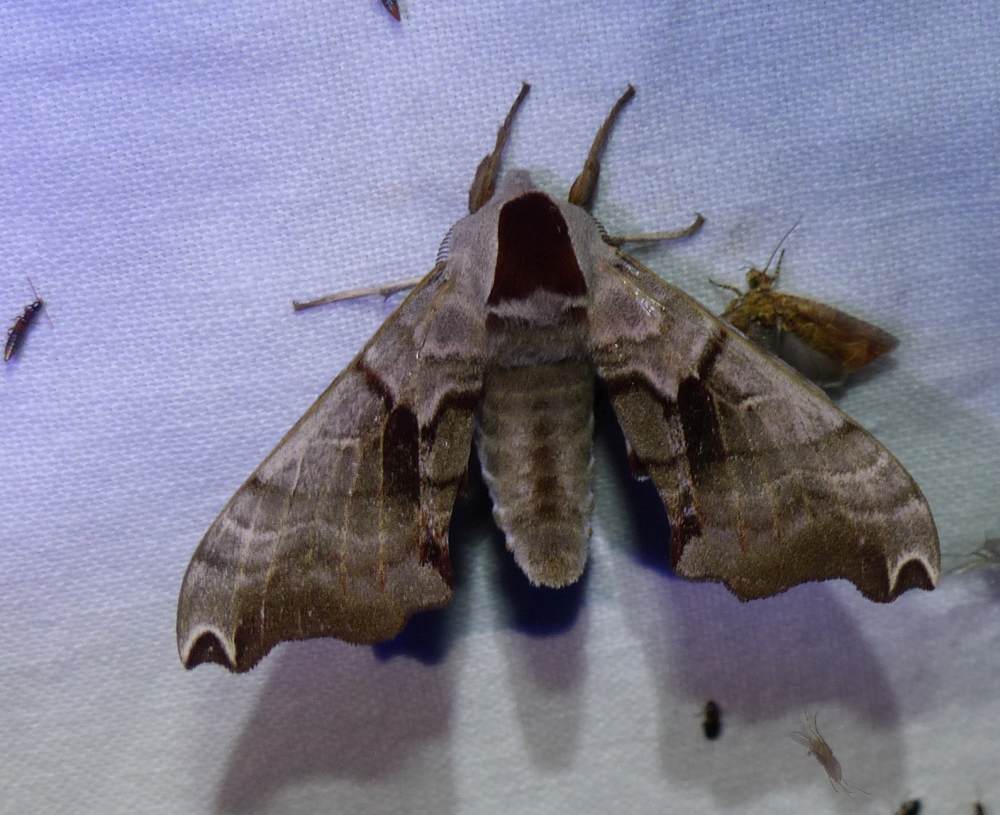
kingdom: Animalia
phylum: Arthropoda
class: Insecta
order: Lepidoptera
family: Sphingidae
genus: Smerinthus
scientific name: Smerinthus jamaicensis
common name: Twin spotted sphinx
